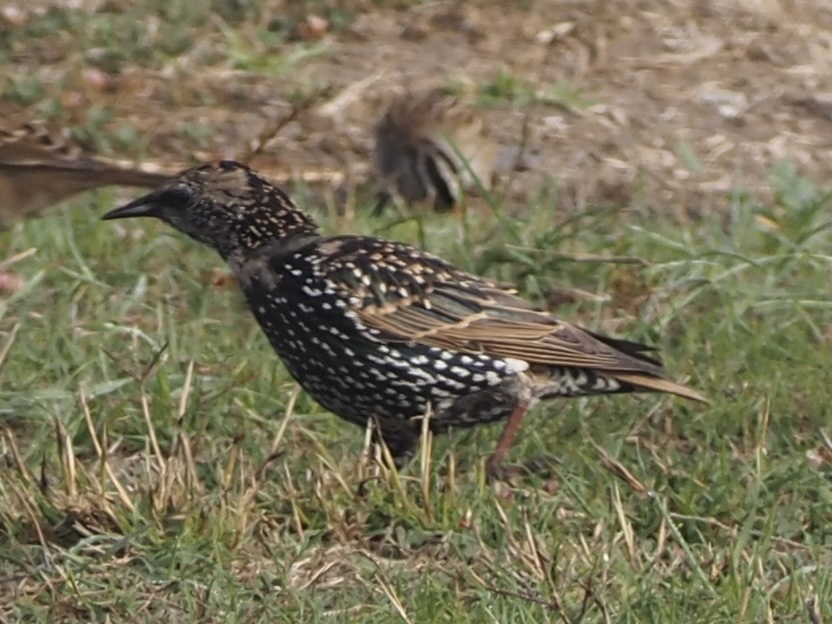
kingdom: Animalia
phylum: Chordata
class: Aves
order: Passeriformes
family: Sturnidae
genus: Sturnus
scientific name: Sturnus vulgaris
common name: Common starling
